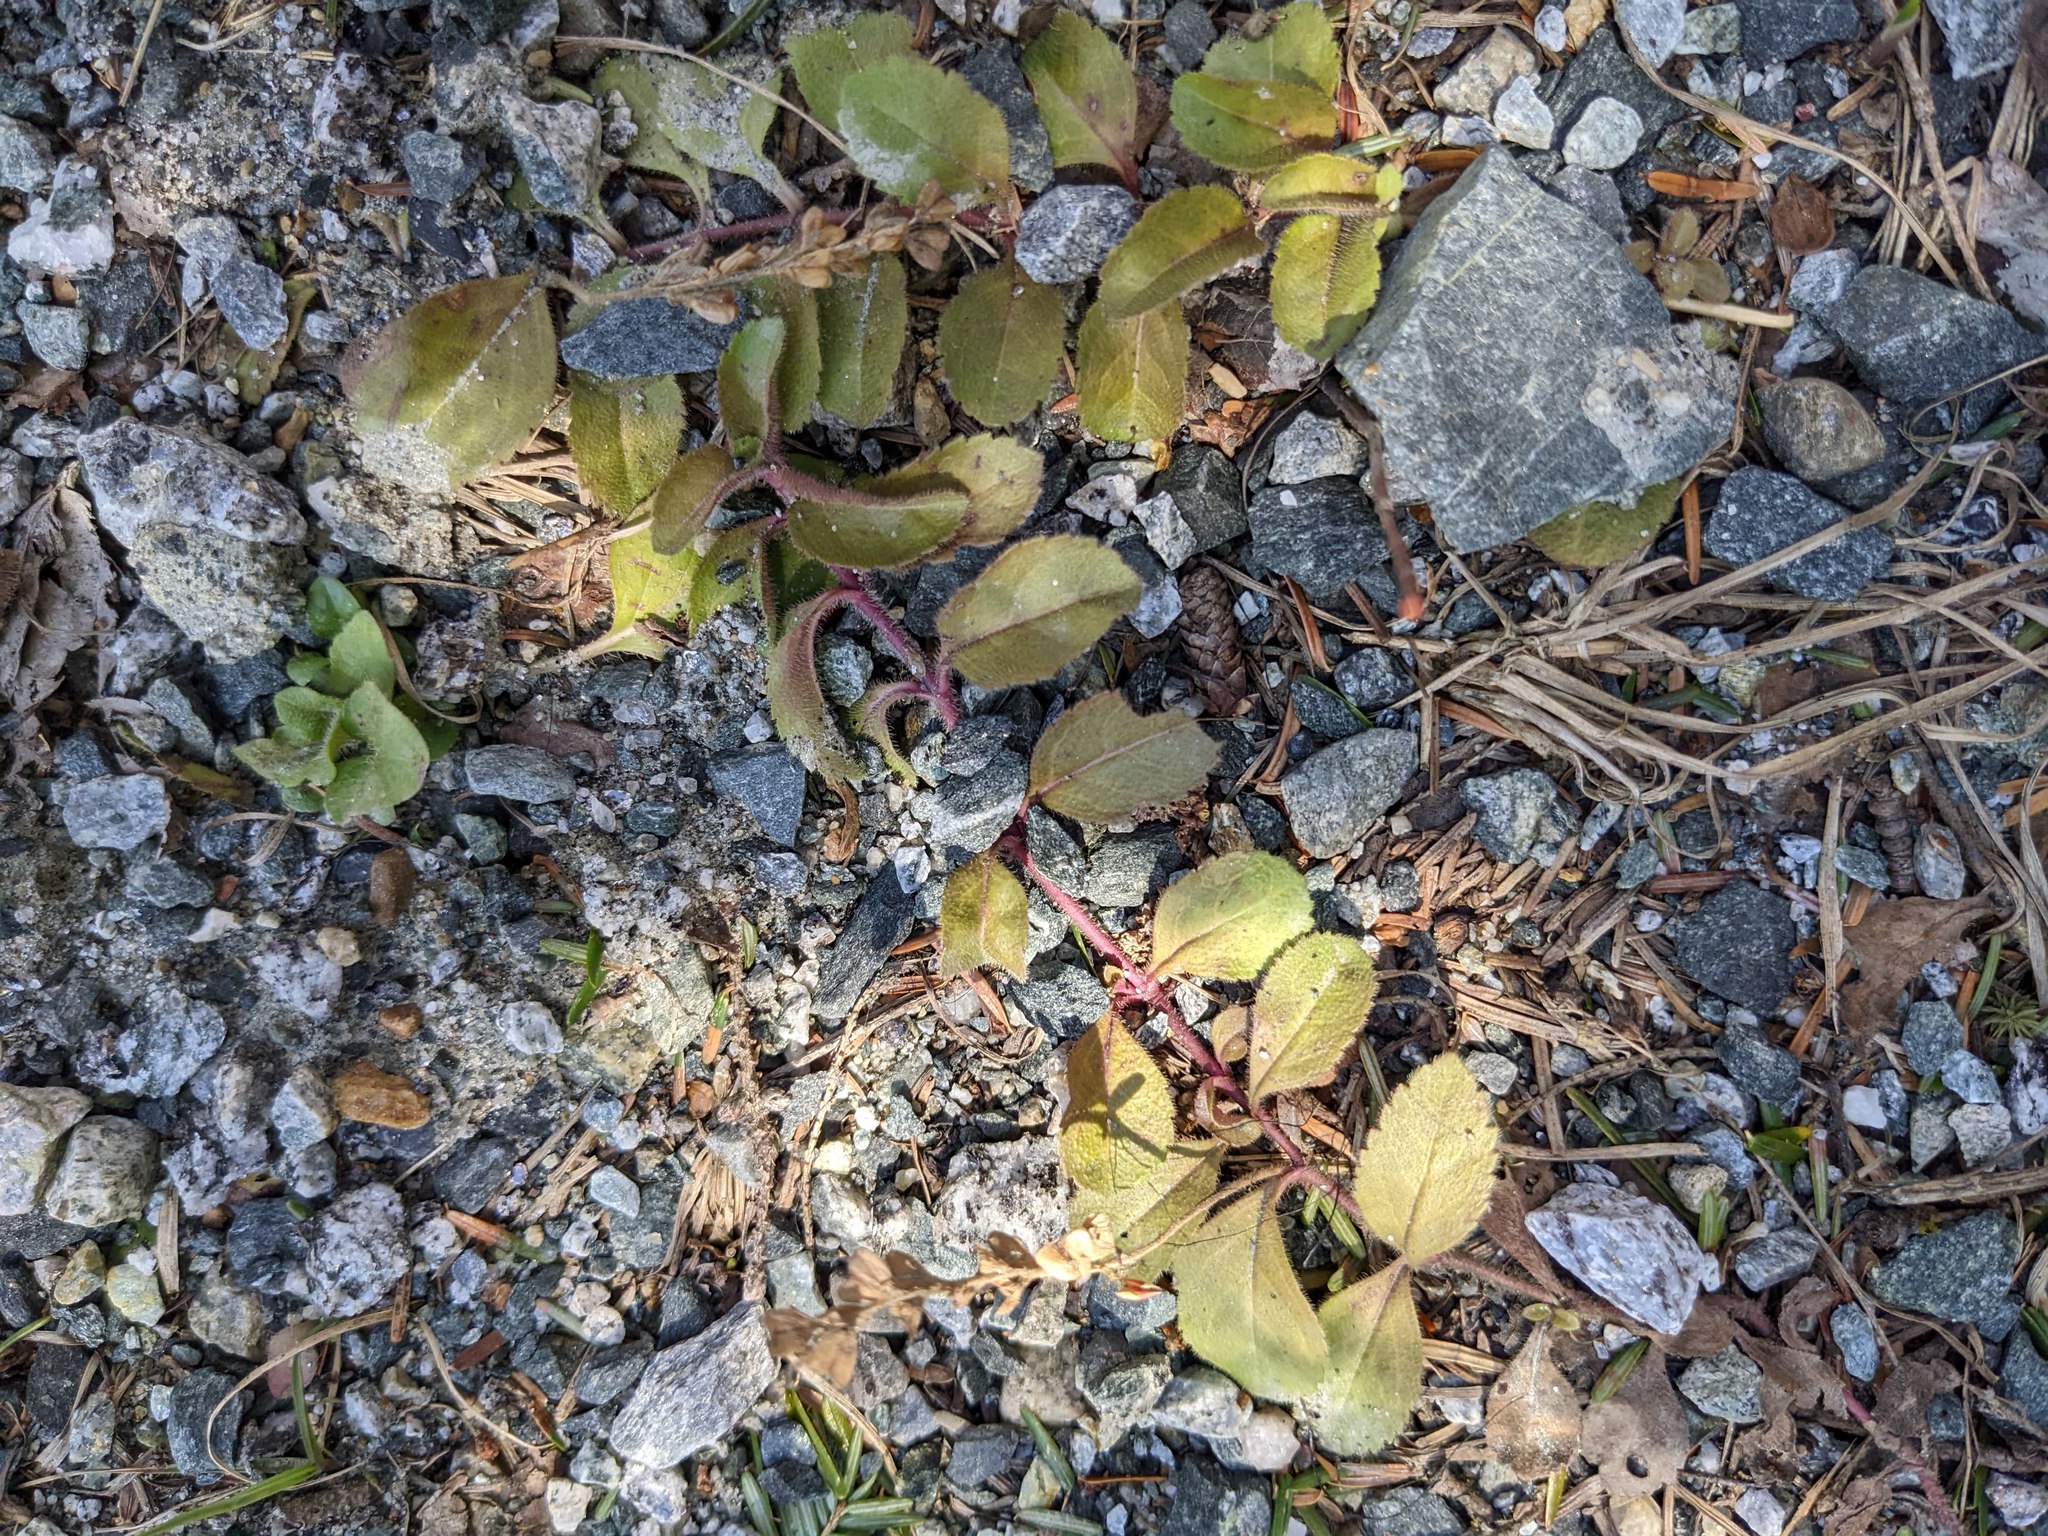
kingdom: Plantae
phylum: Tracheophyta
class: Magnoliopsida
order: Lamiales
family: Plantaginaceae
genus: Veronica
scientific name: Veronica officinalis
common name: Common speedwell
